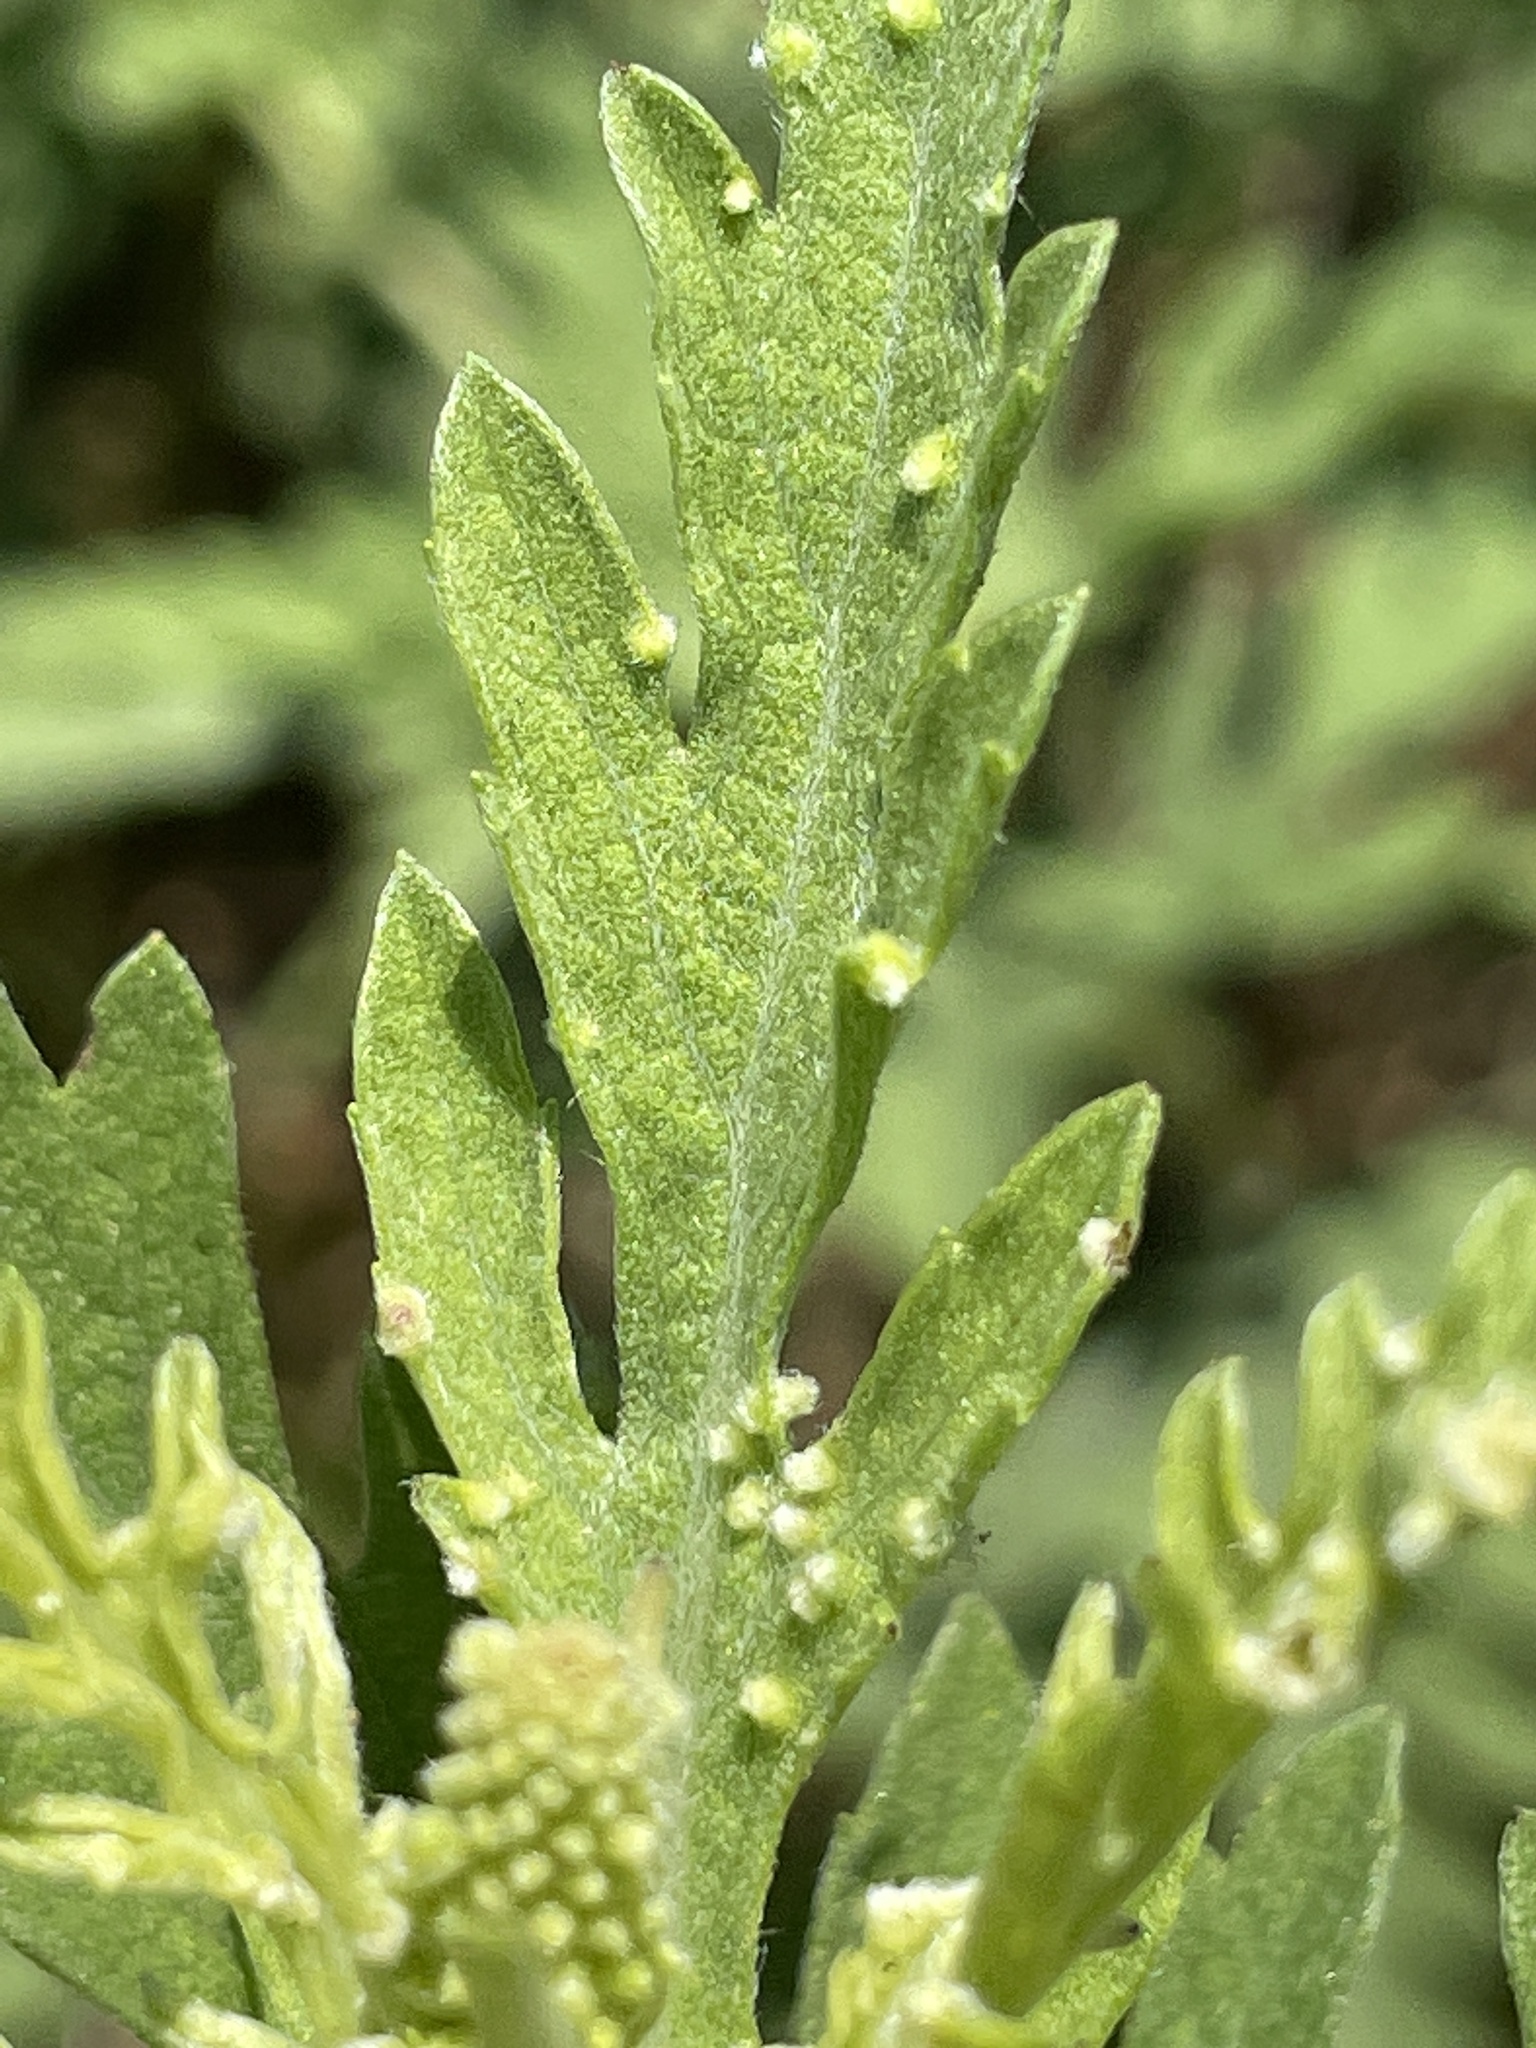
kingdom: Animalia
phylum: Arthropoda
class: Arachnida
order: Trombidiformes
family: Eriophyidae
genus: Aceria
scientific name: Aceria
